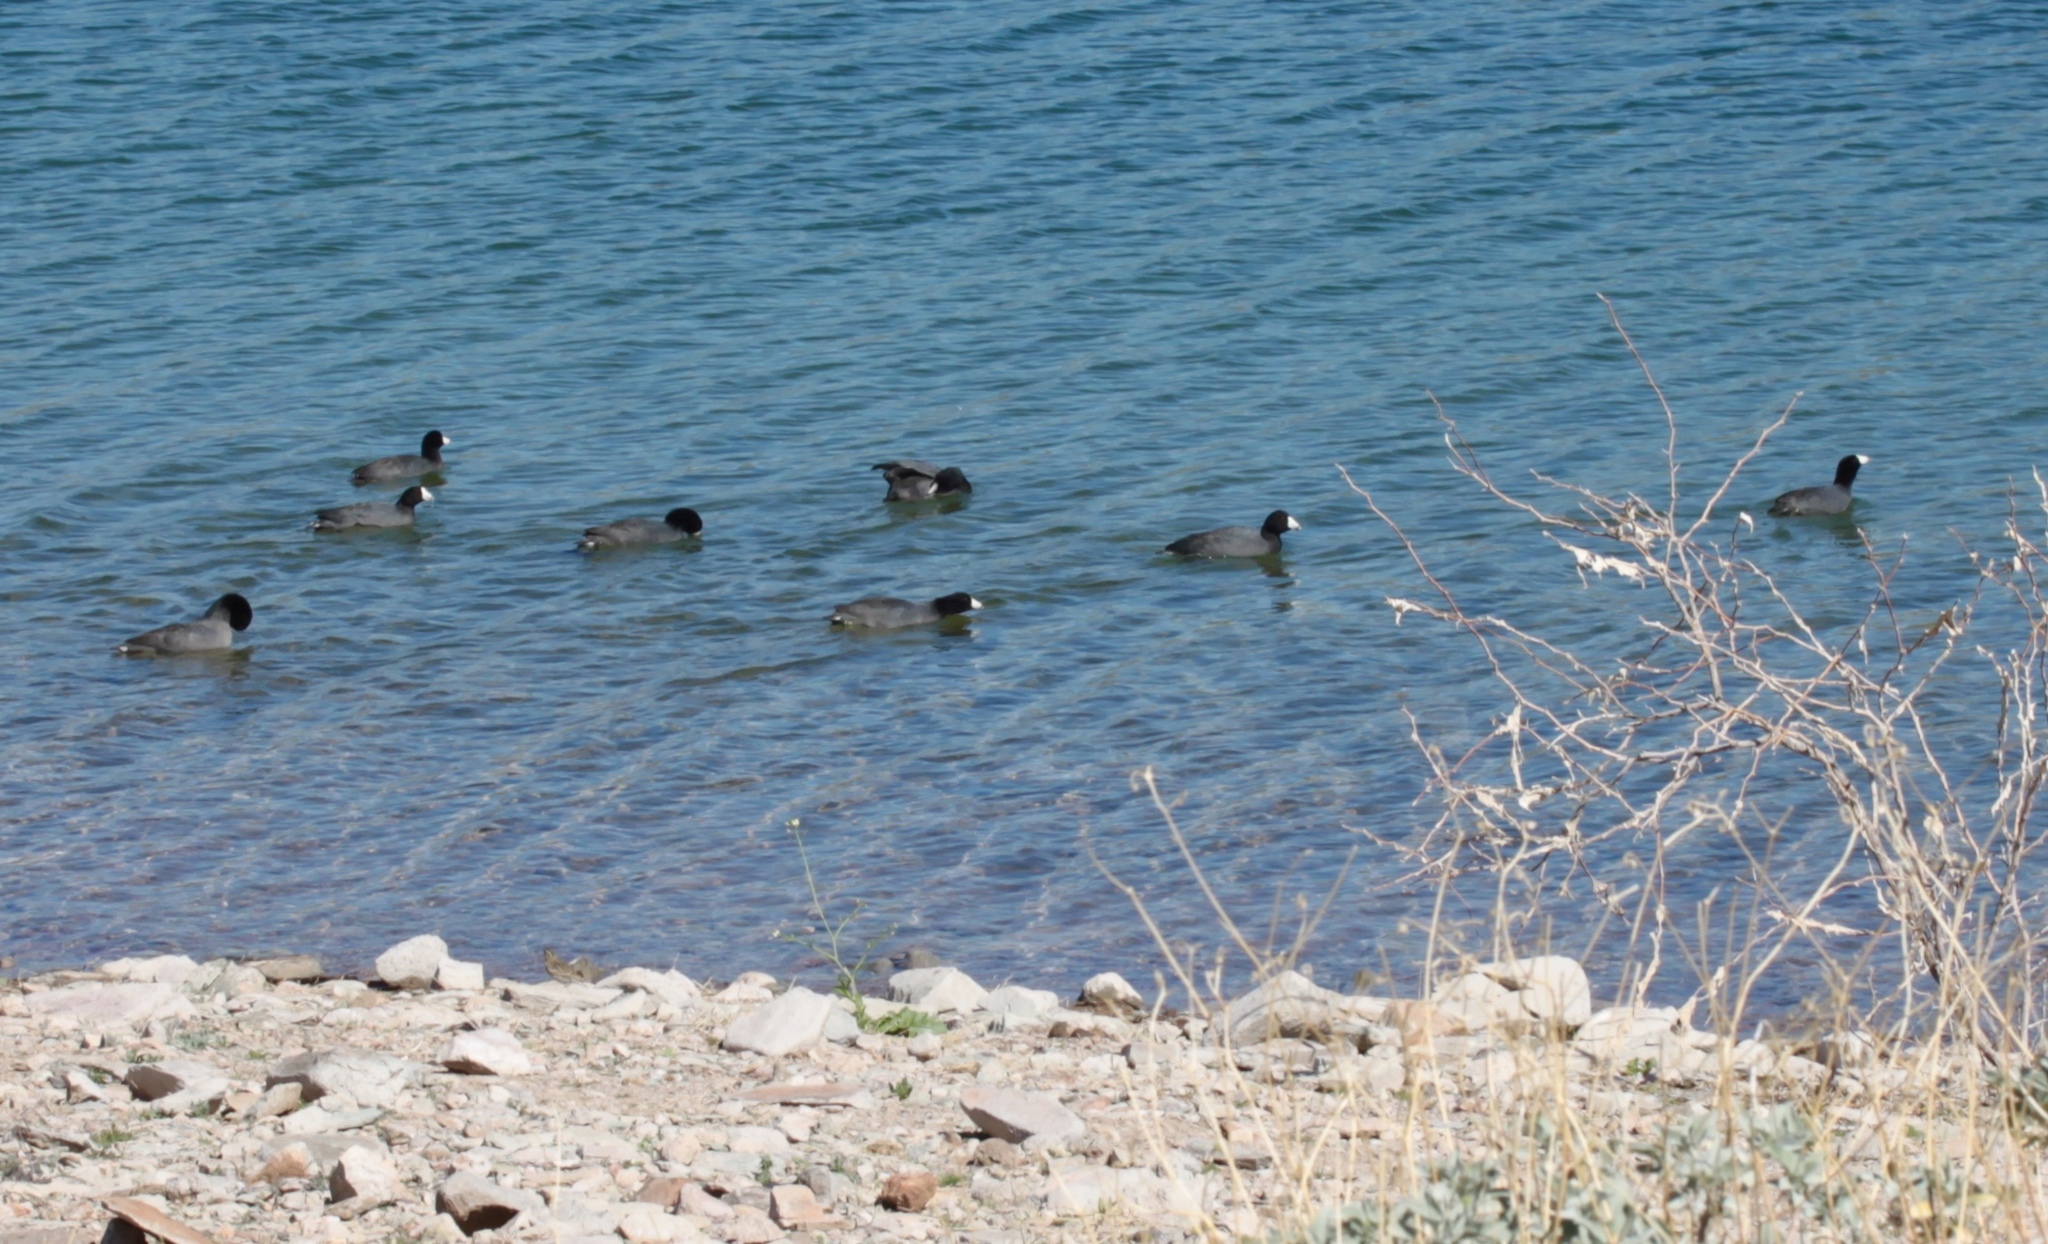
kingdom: Animalia
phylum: Chordata
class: Aves
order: Gruiformes
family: Rallidae
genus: Fulica
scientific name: Fulica americana
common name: American coot
